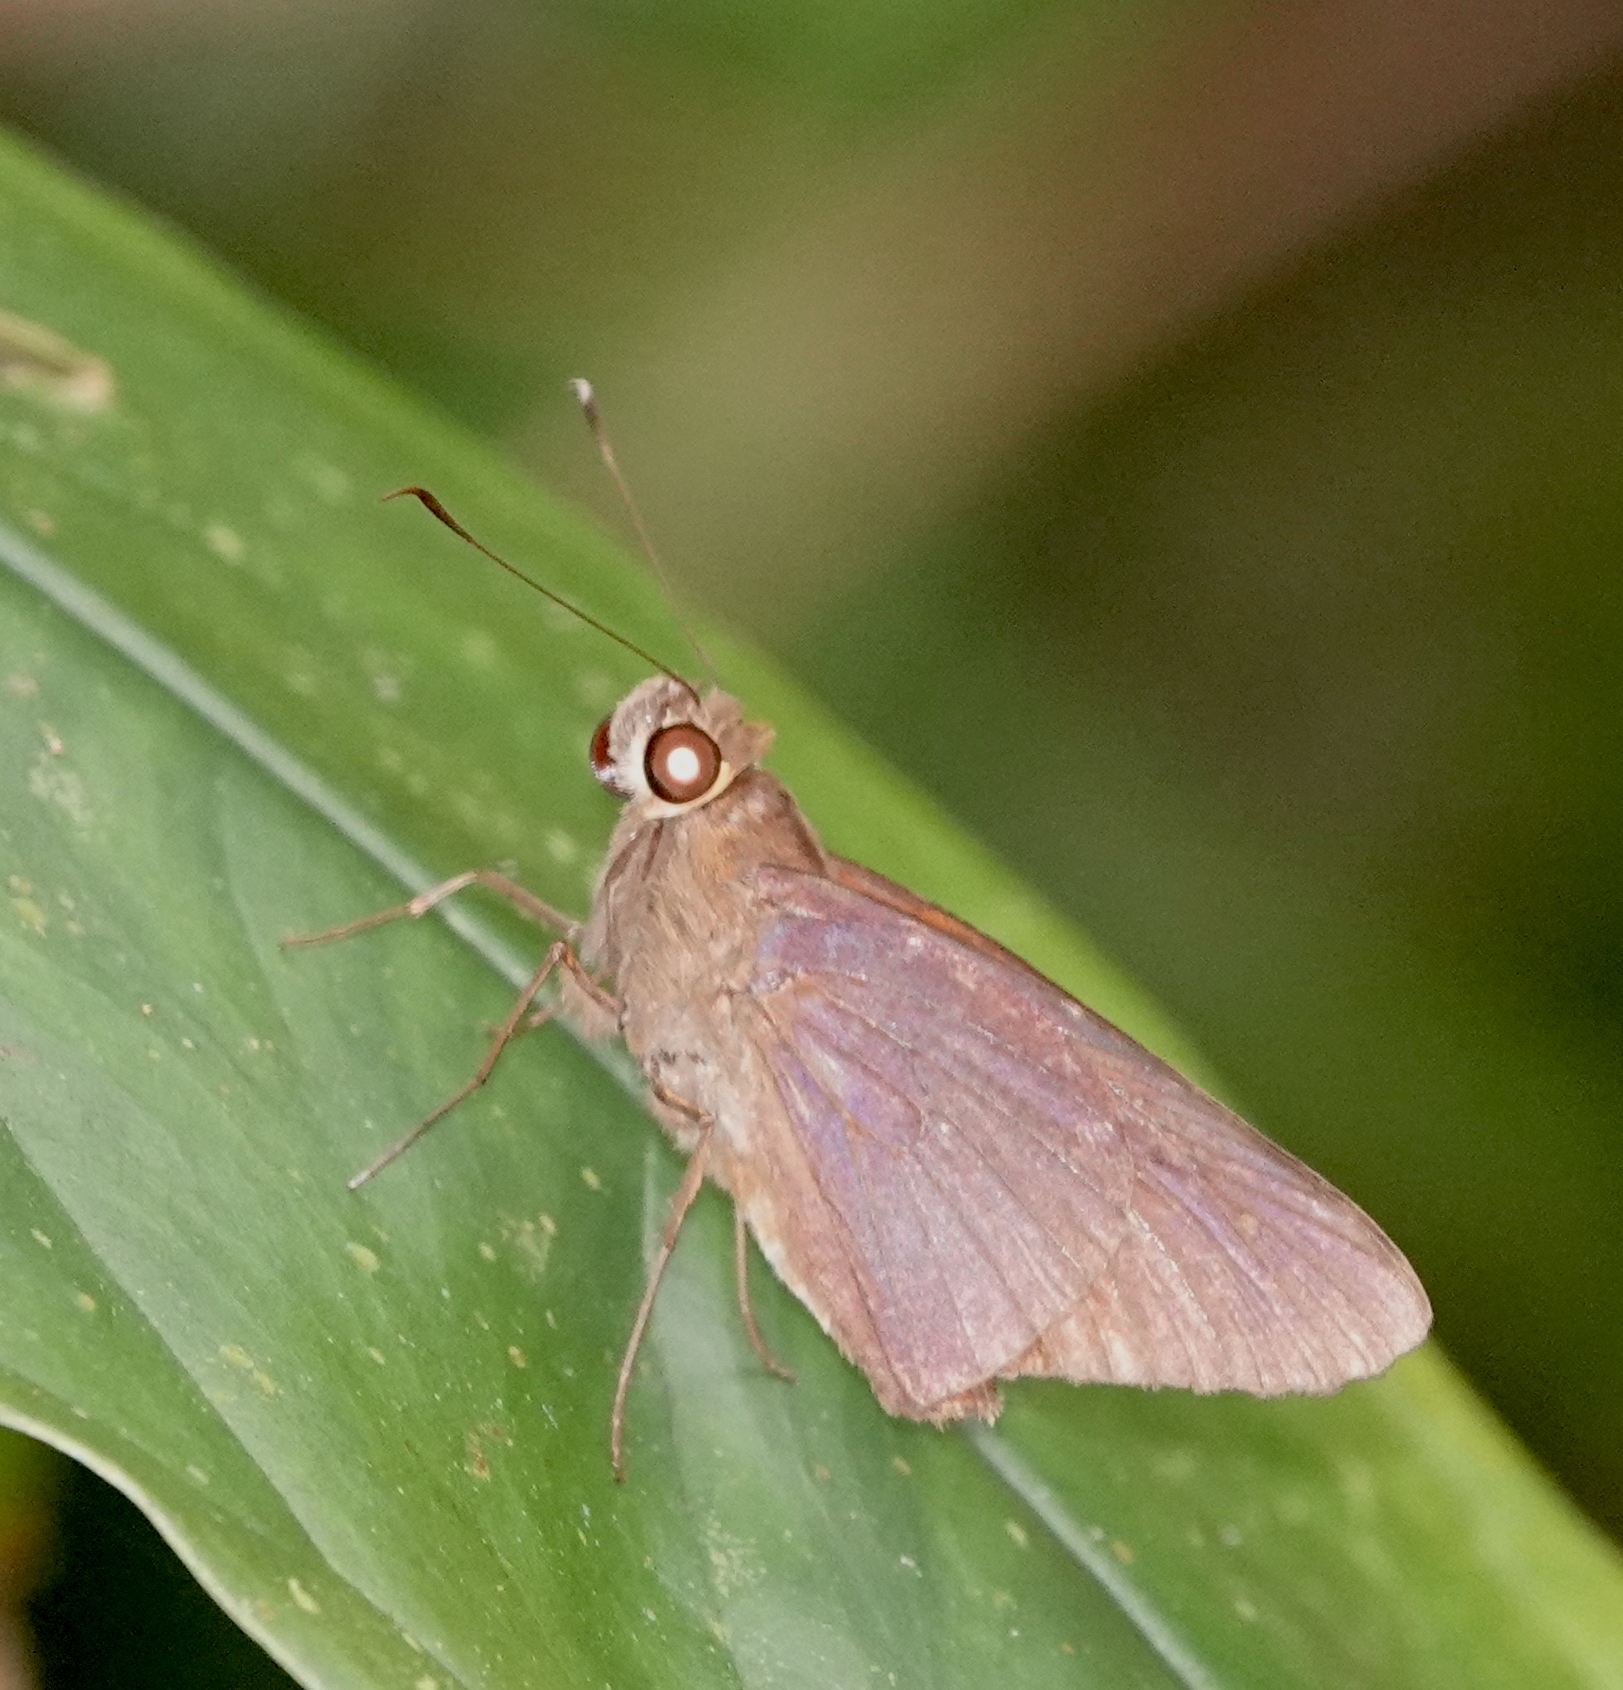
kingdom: Animalia
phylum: Arthropoda
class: Insecta
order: Lepidoptera
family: Hesperiidae
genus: Damas
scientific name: Damas clavus
